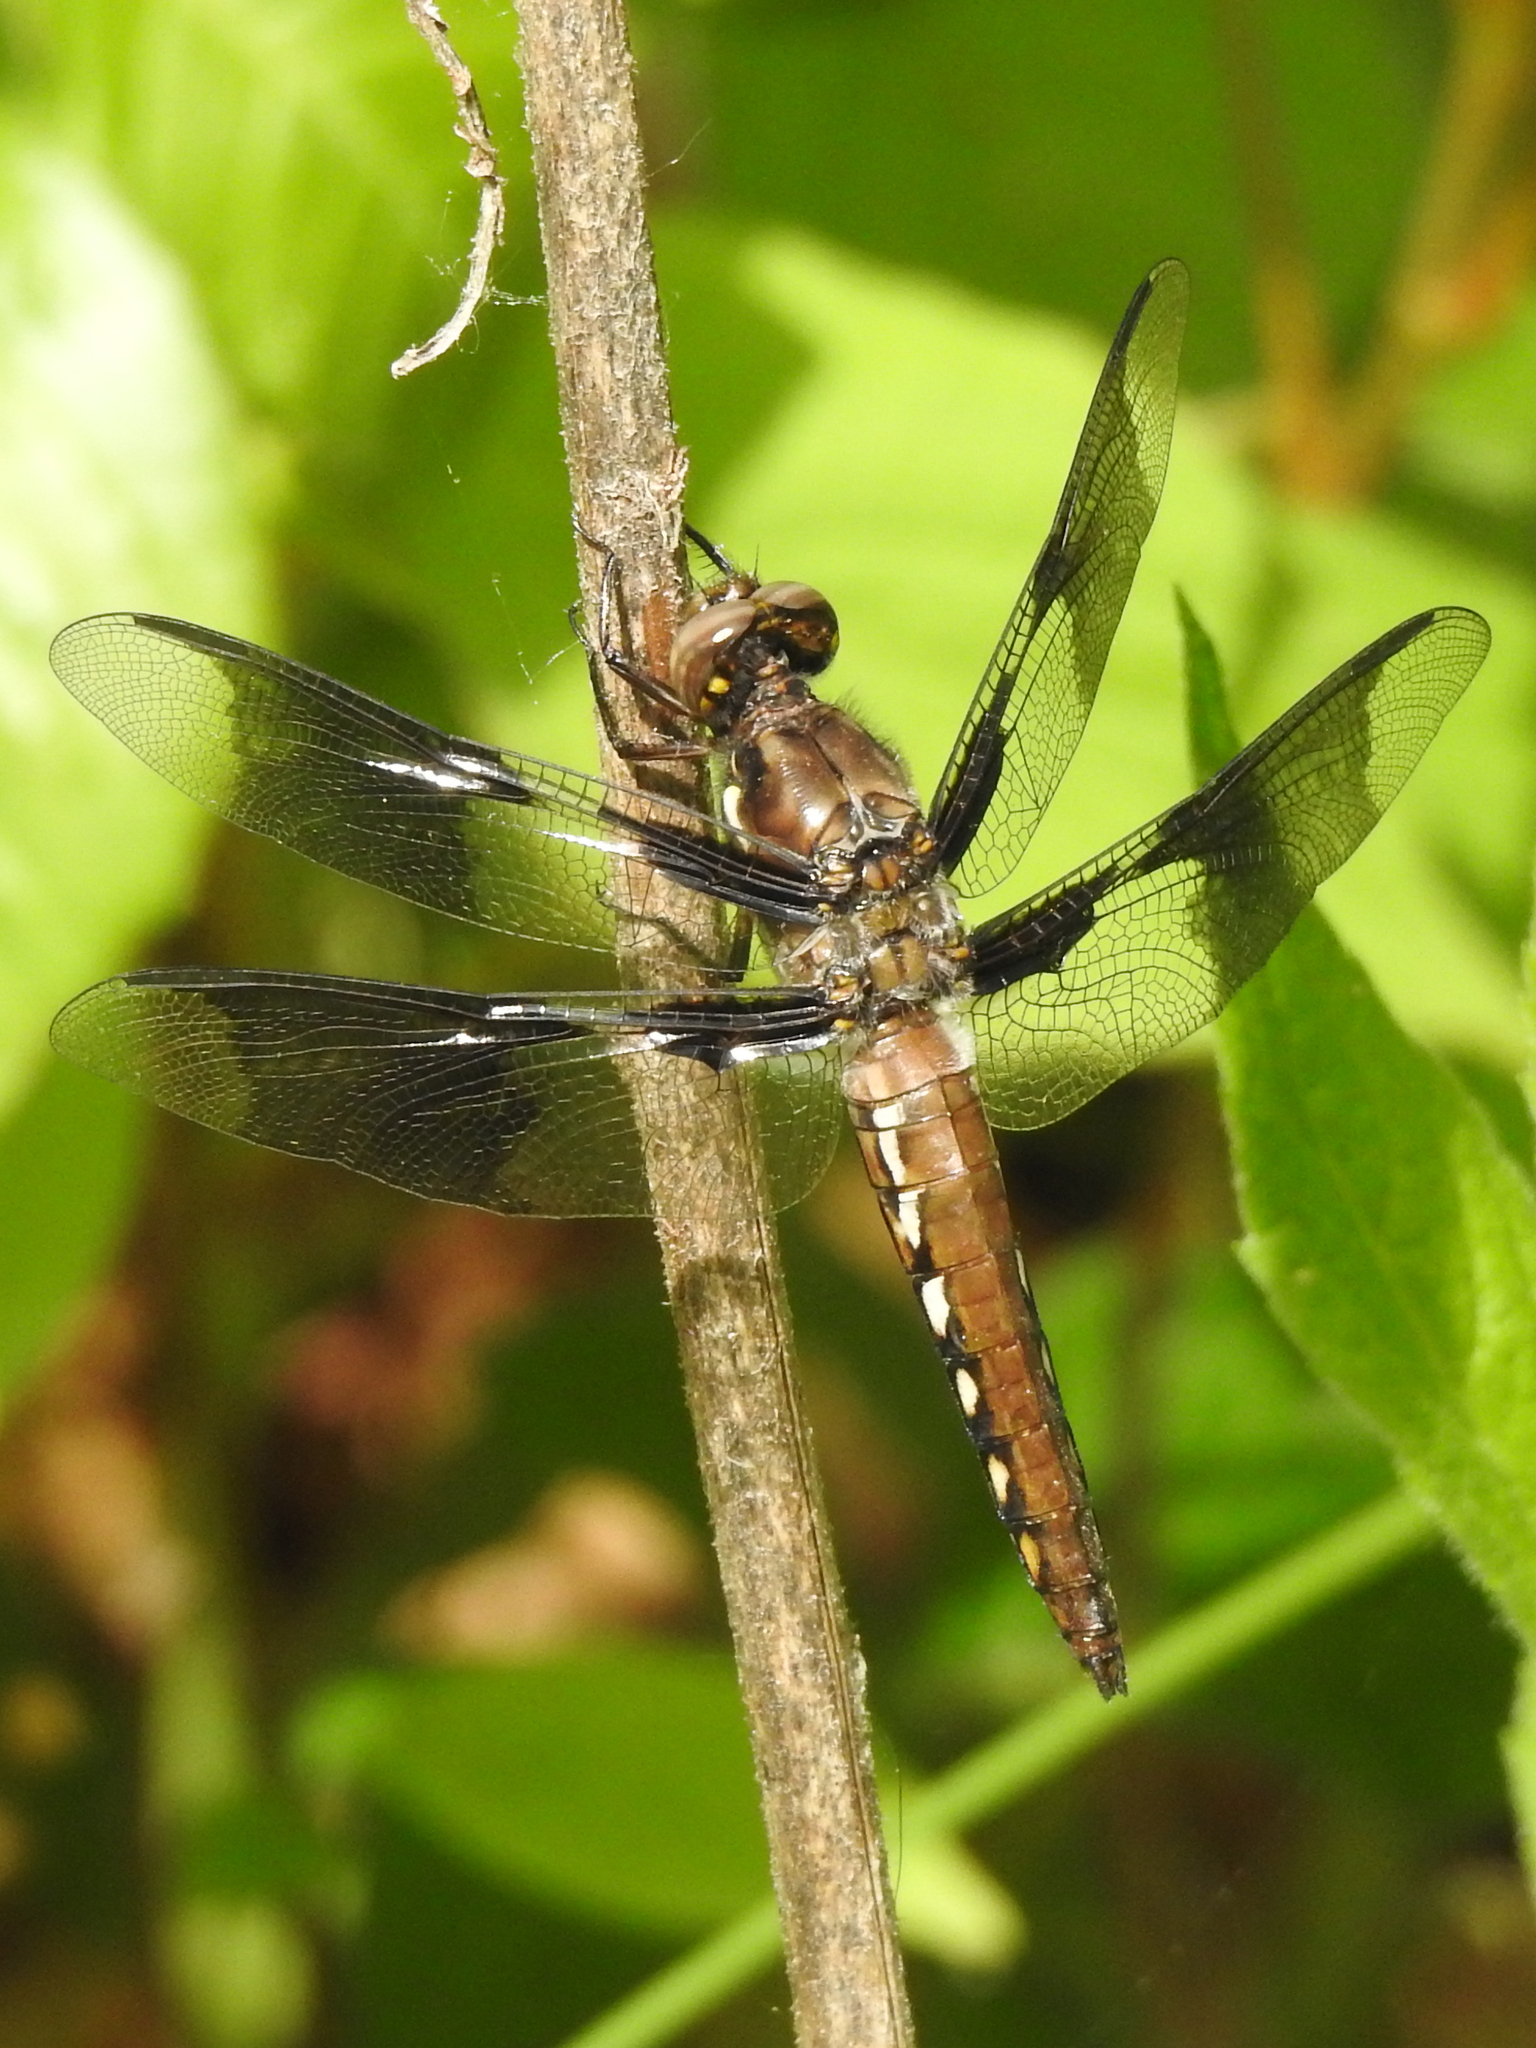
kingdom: Animalia
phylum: Arthropoda
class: Insecta
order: Odonata
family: Libellulidae
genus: Plathemis
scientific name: Plathemis lydia
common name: Common whitetail
